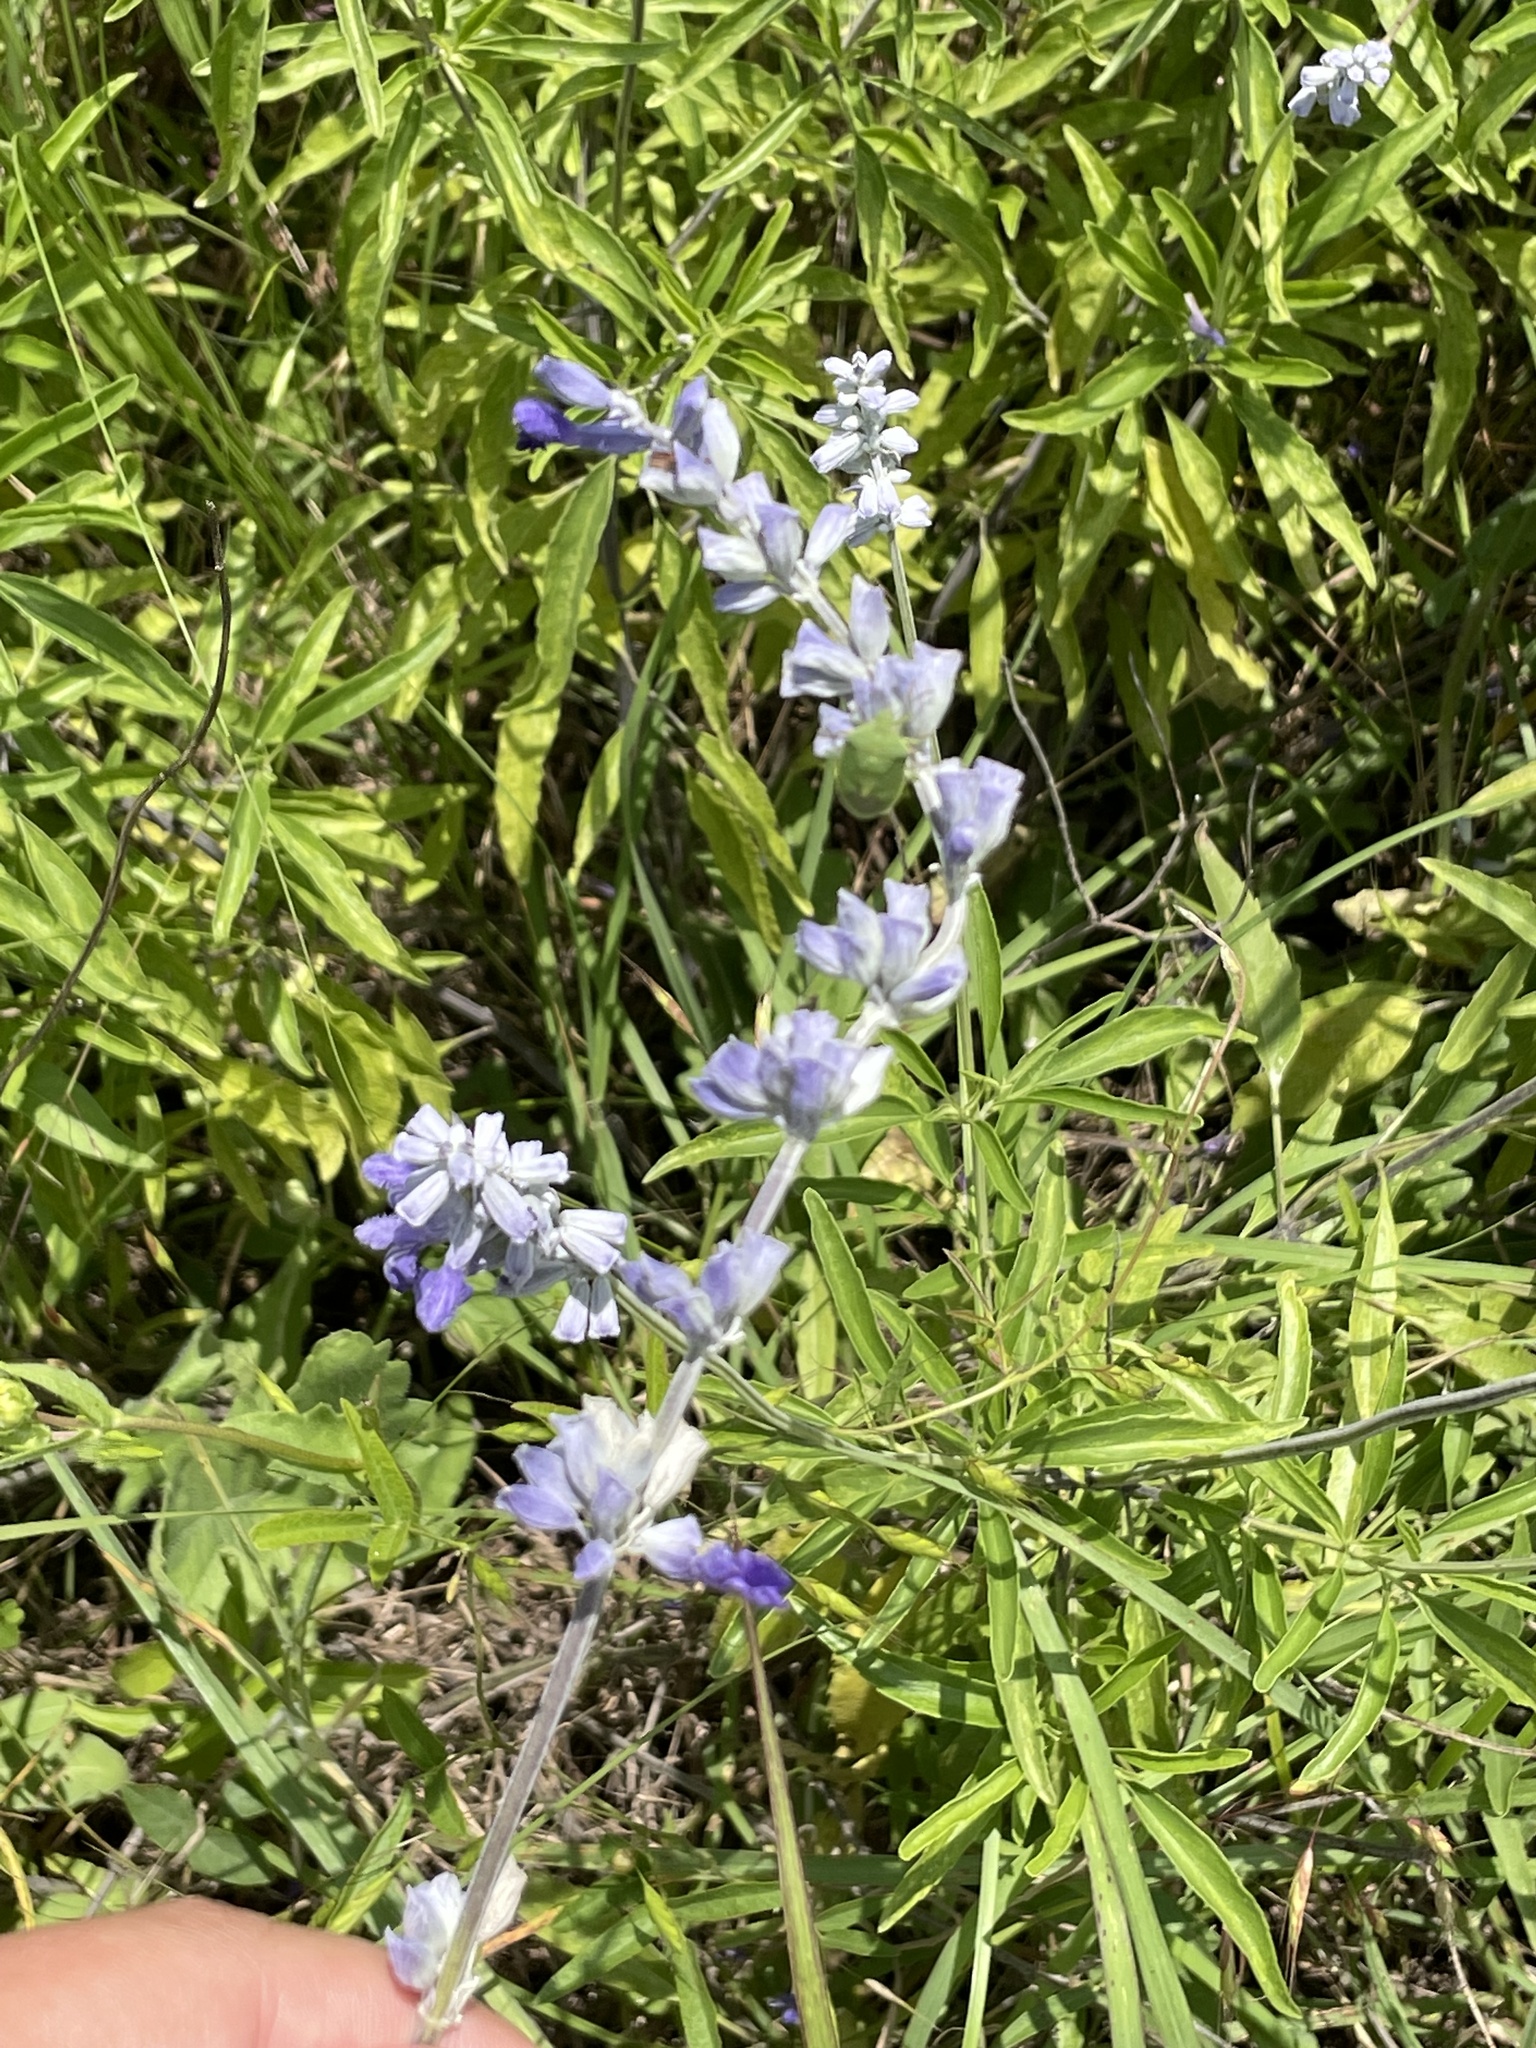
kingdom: Plantae
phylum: Tracheophyta
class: Magnoliopsida
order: Lamiales
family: Lamiaceae
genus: Salvia
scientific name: Salvia farinacea
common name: Mealy sage
